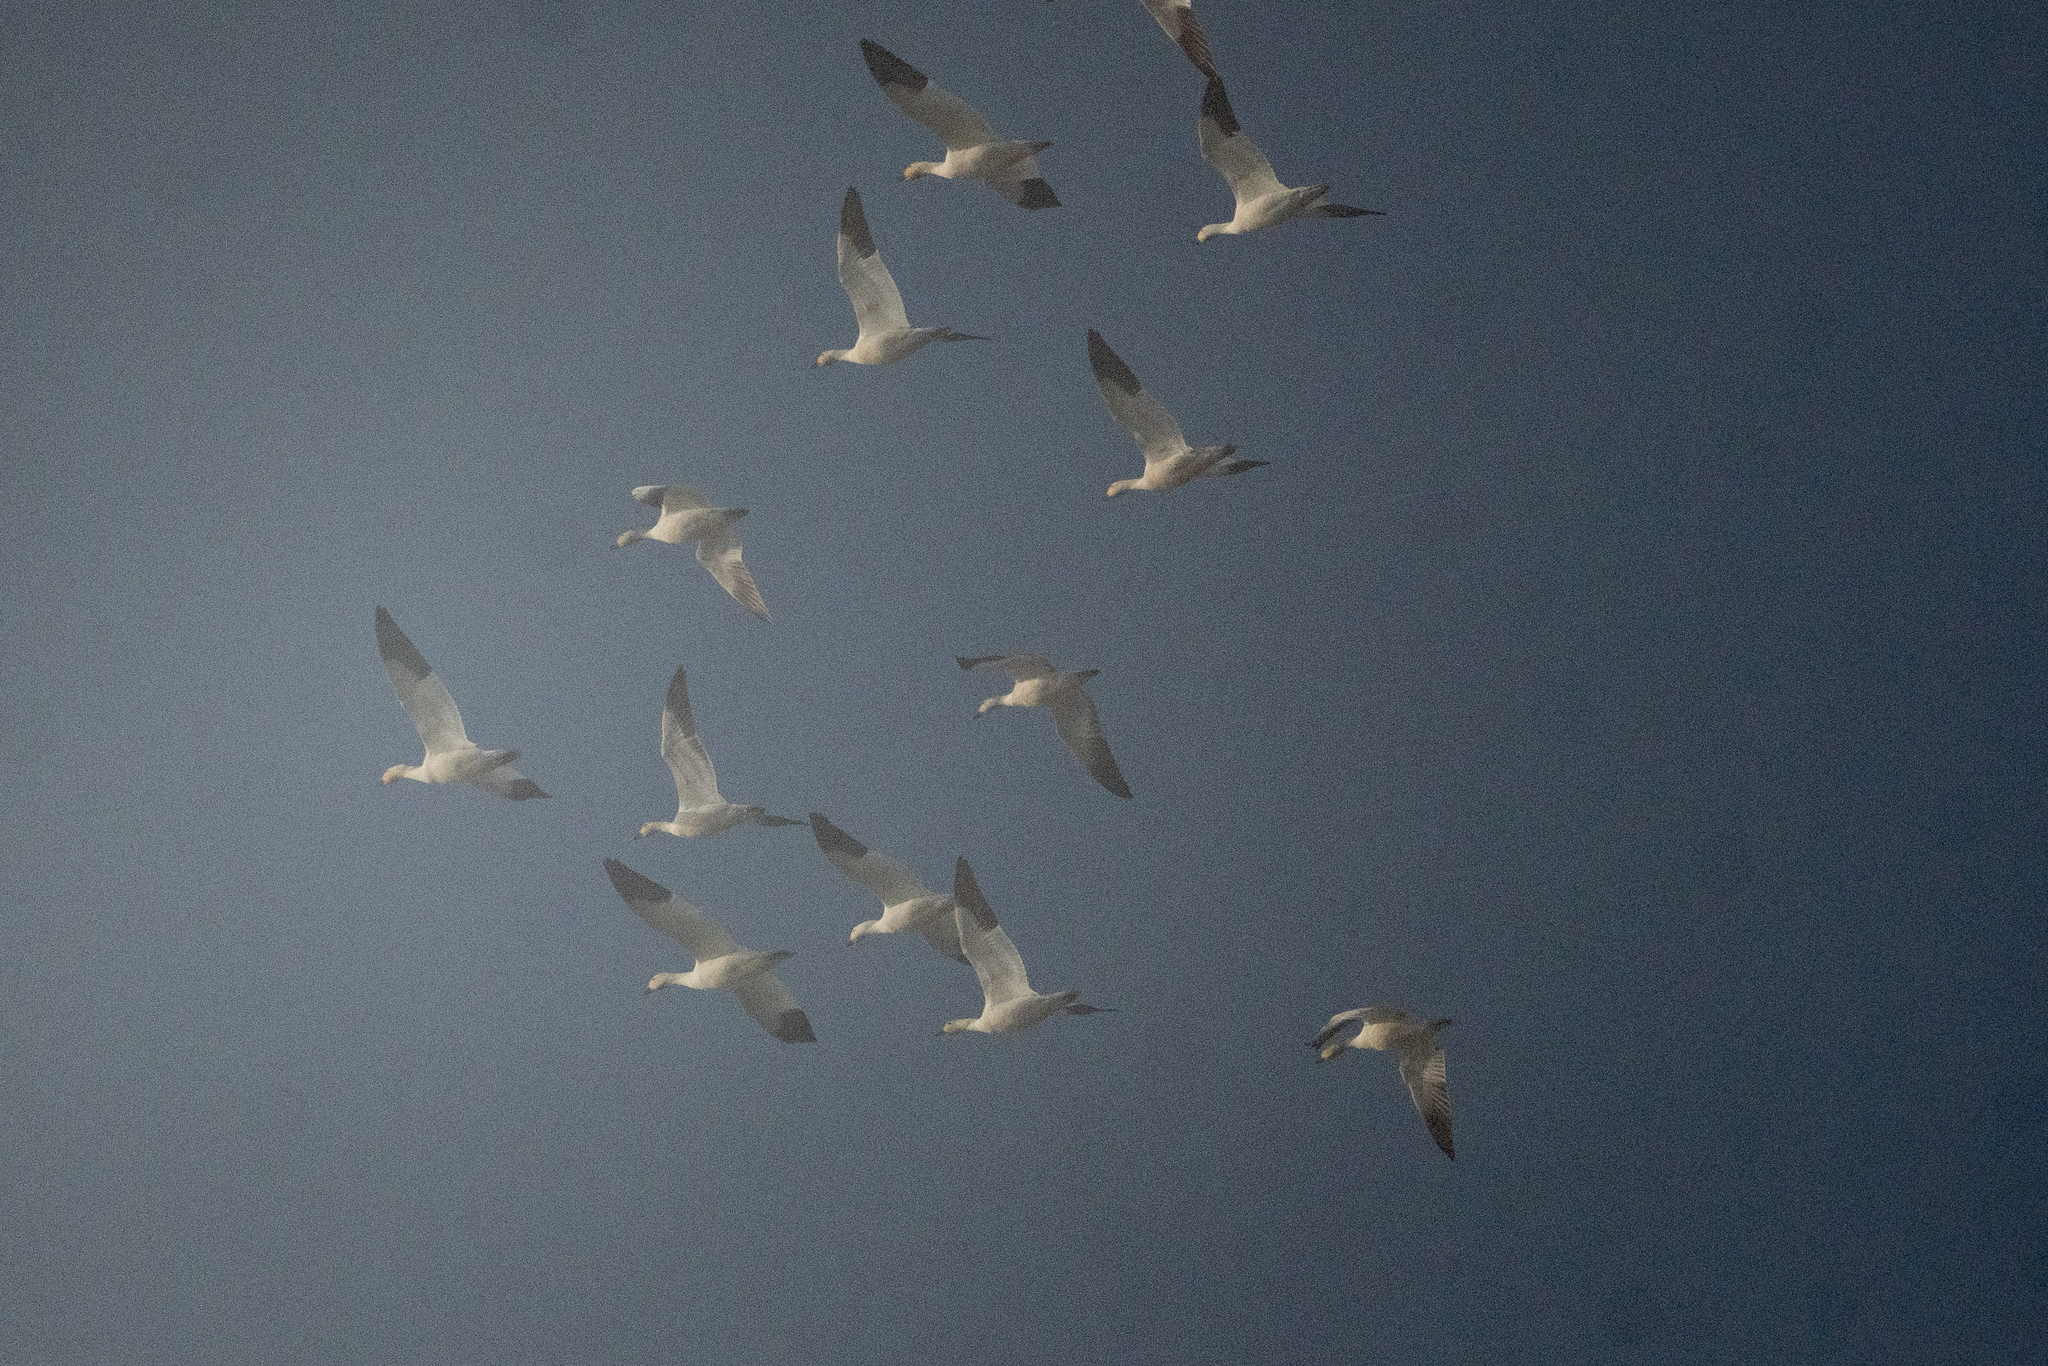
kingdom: Animalia
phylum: Chordata
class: Aves
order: Anseriformes
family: Anatidae
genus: Anser
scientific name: Anser caerulescens
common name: Snow goose
